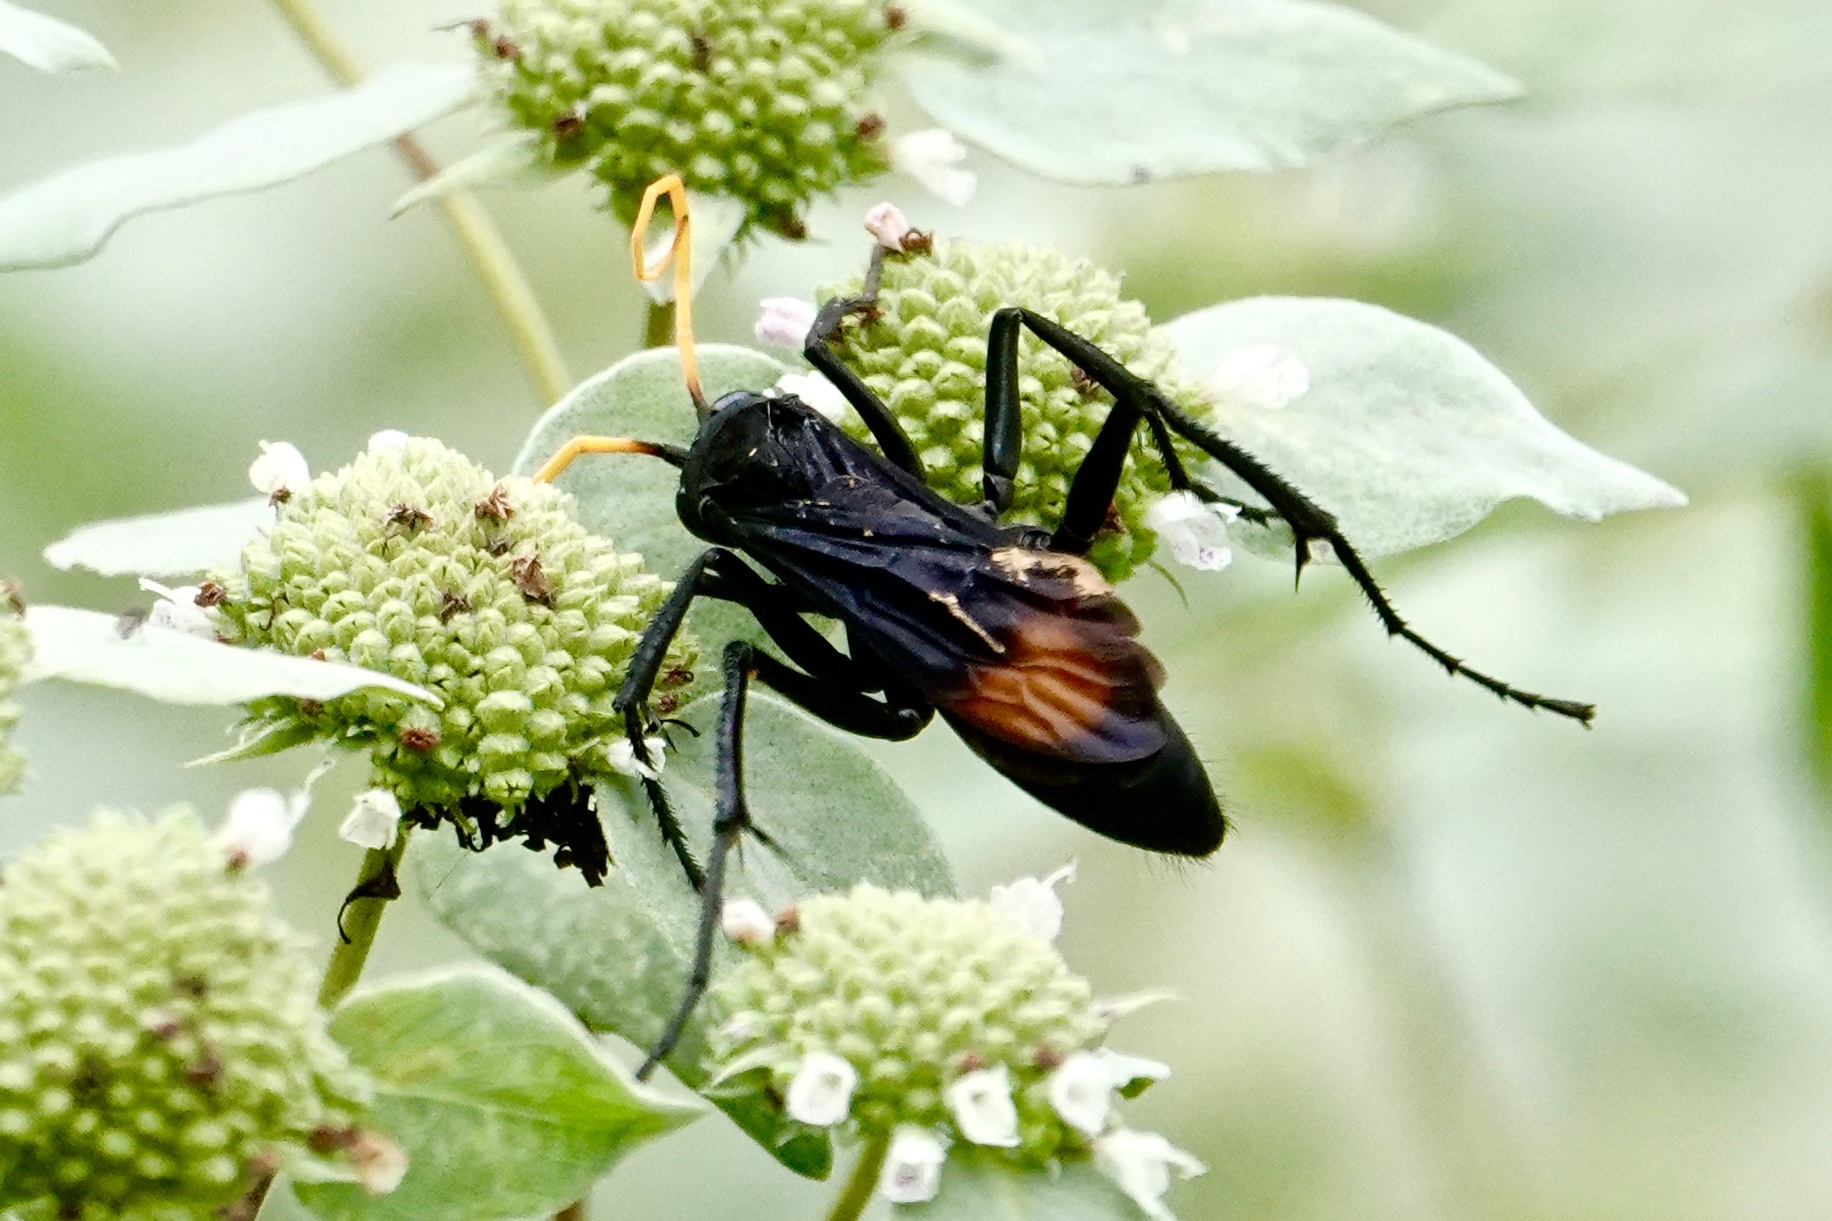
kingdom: Animalia
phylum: Arthropoda
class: Insecta
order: Hymenoptera
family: Pompilidae
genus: Entypus
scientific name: Entypus unifasciatus
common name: Eastern tawny-horned spider wasp
